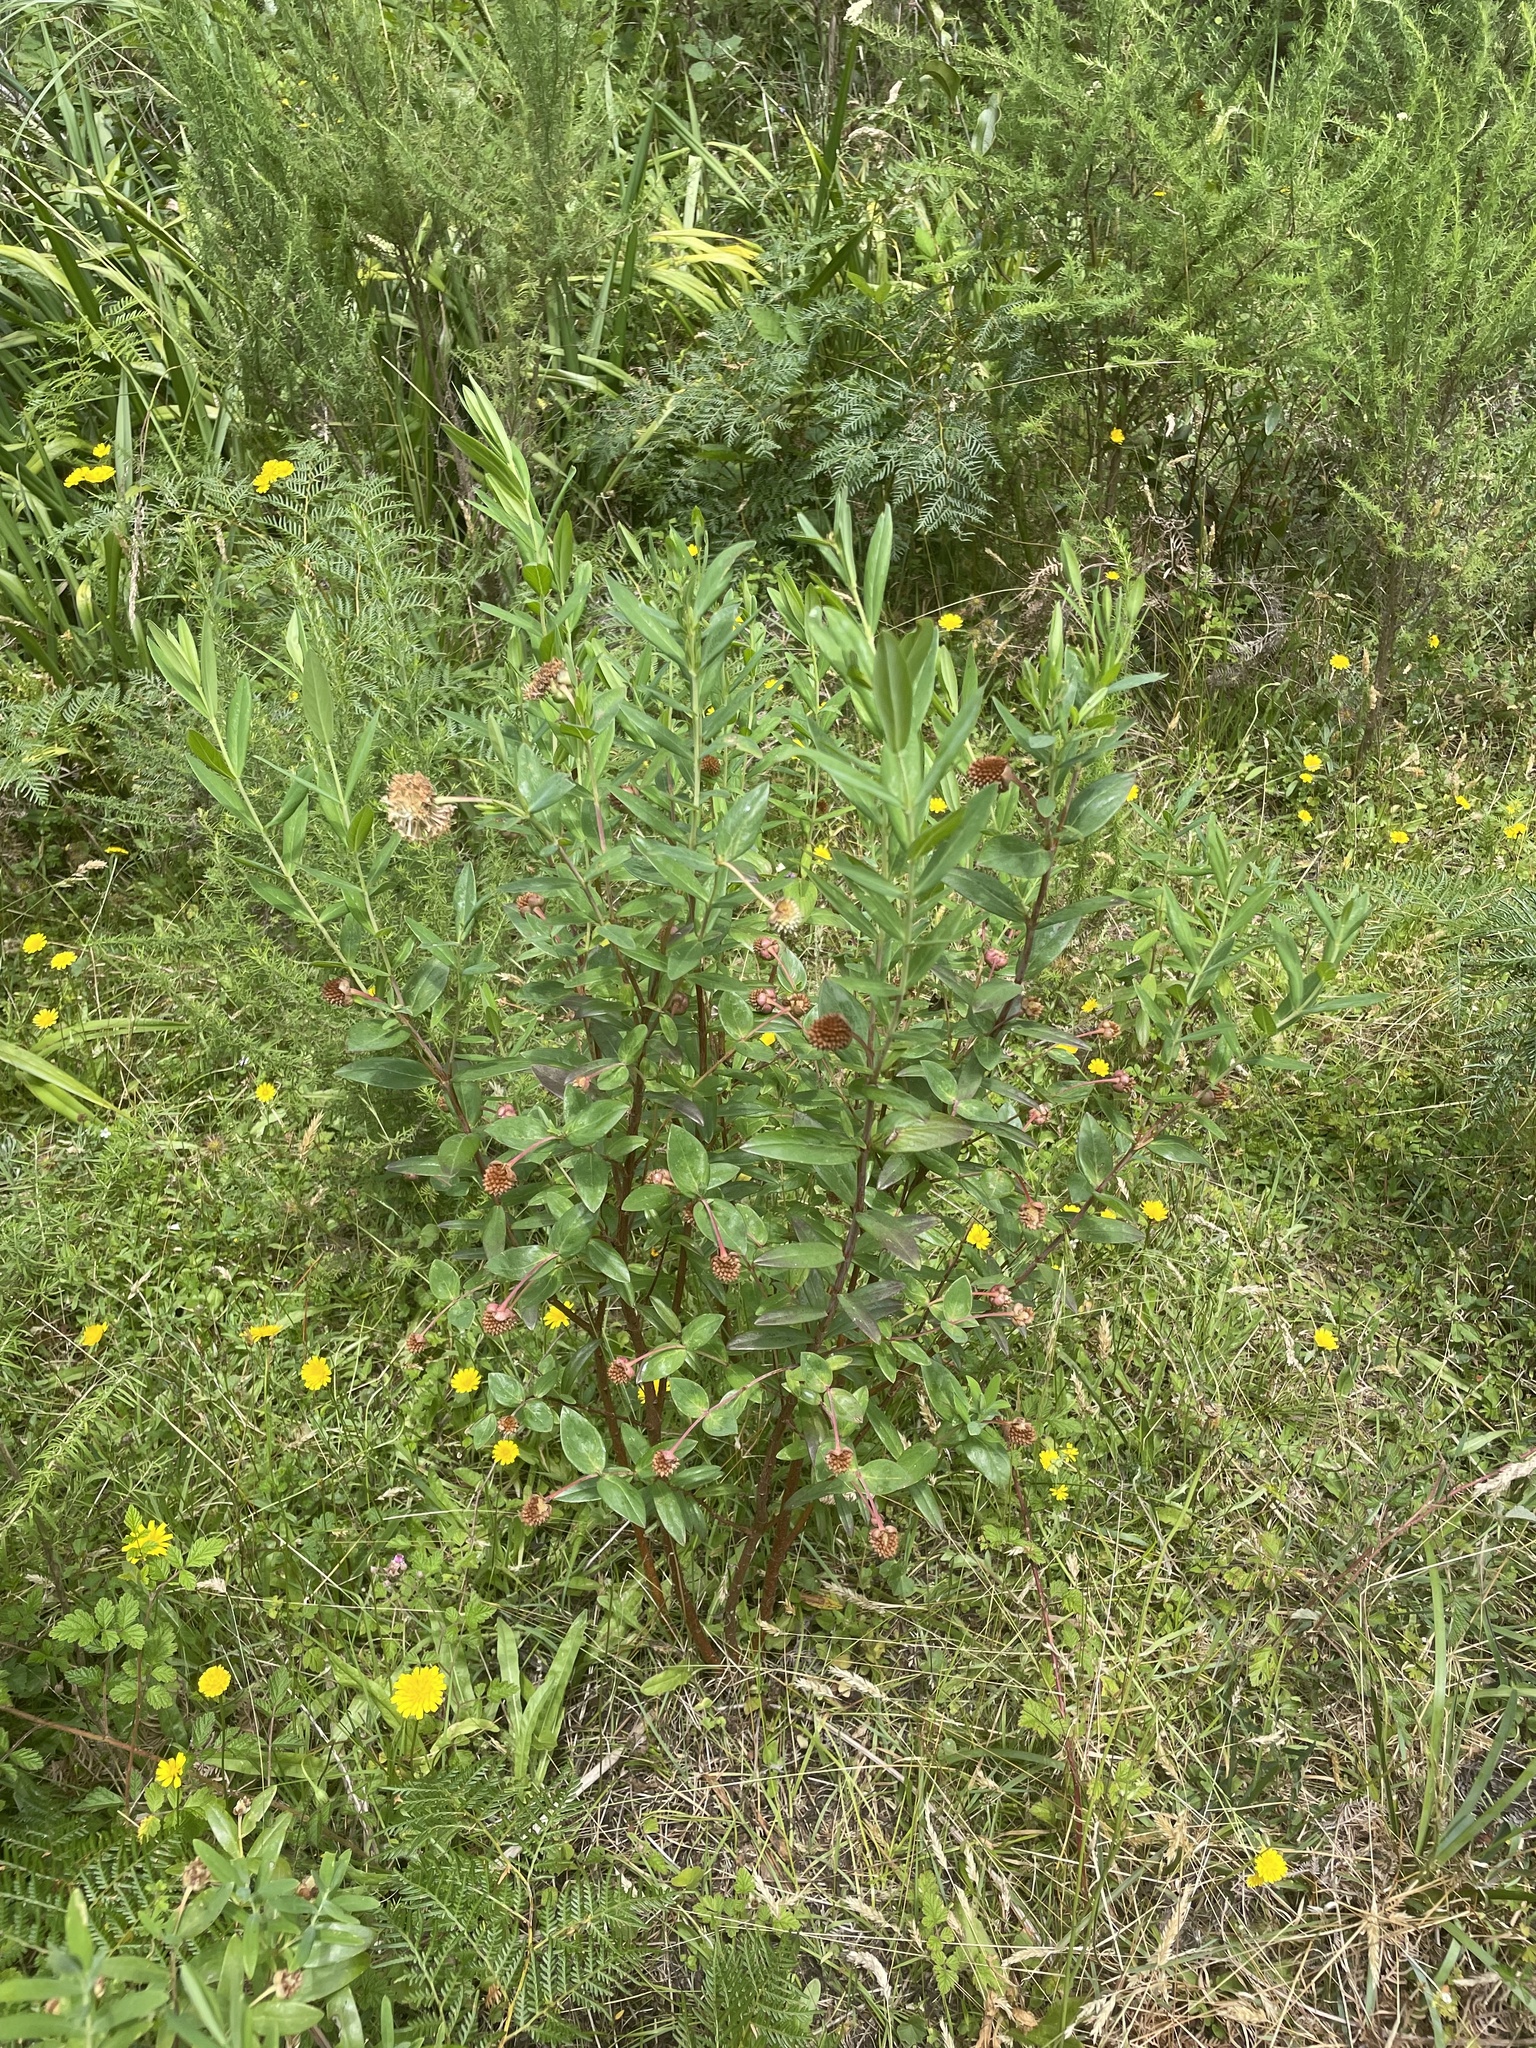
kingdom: Plantae
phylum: Tracheophyta
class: Magnoliopsida
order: Malvales
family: Thymelaeaceae
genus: Pimelea
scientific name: Pimelea ligustrina
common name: Tall riceflower
